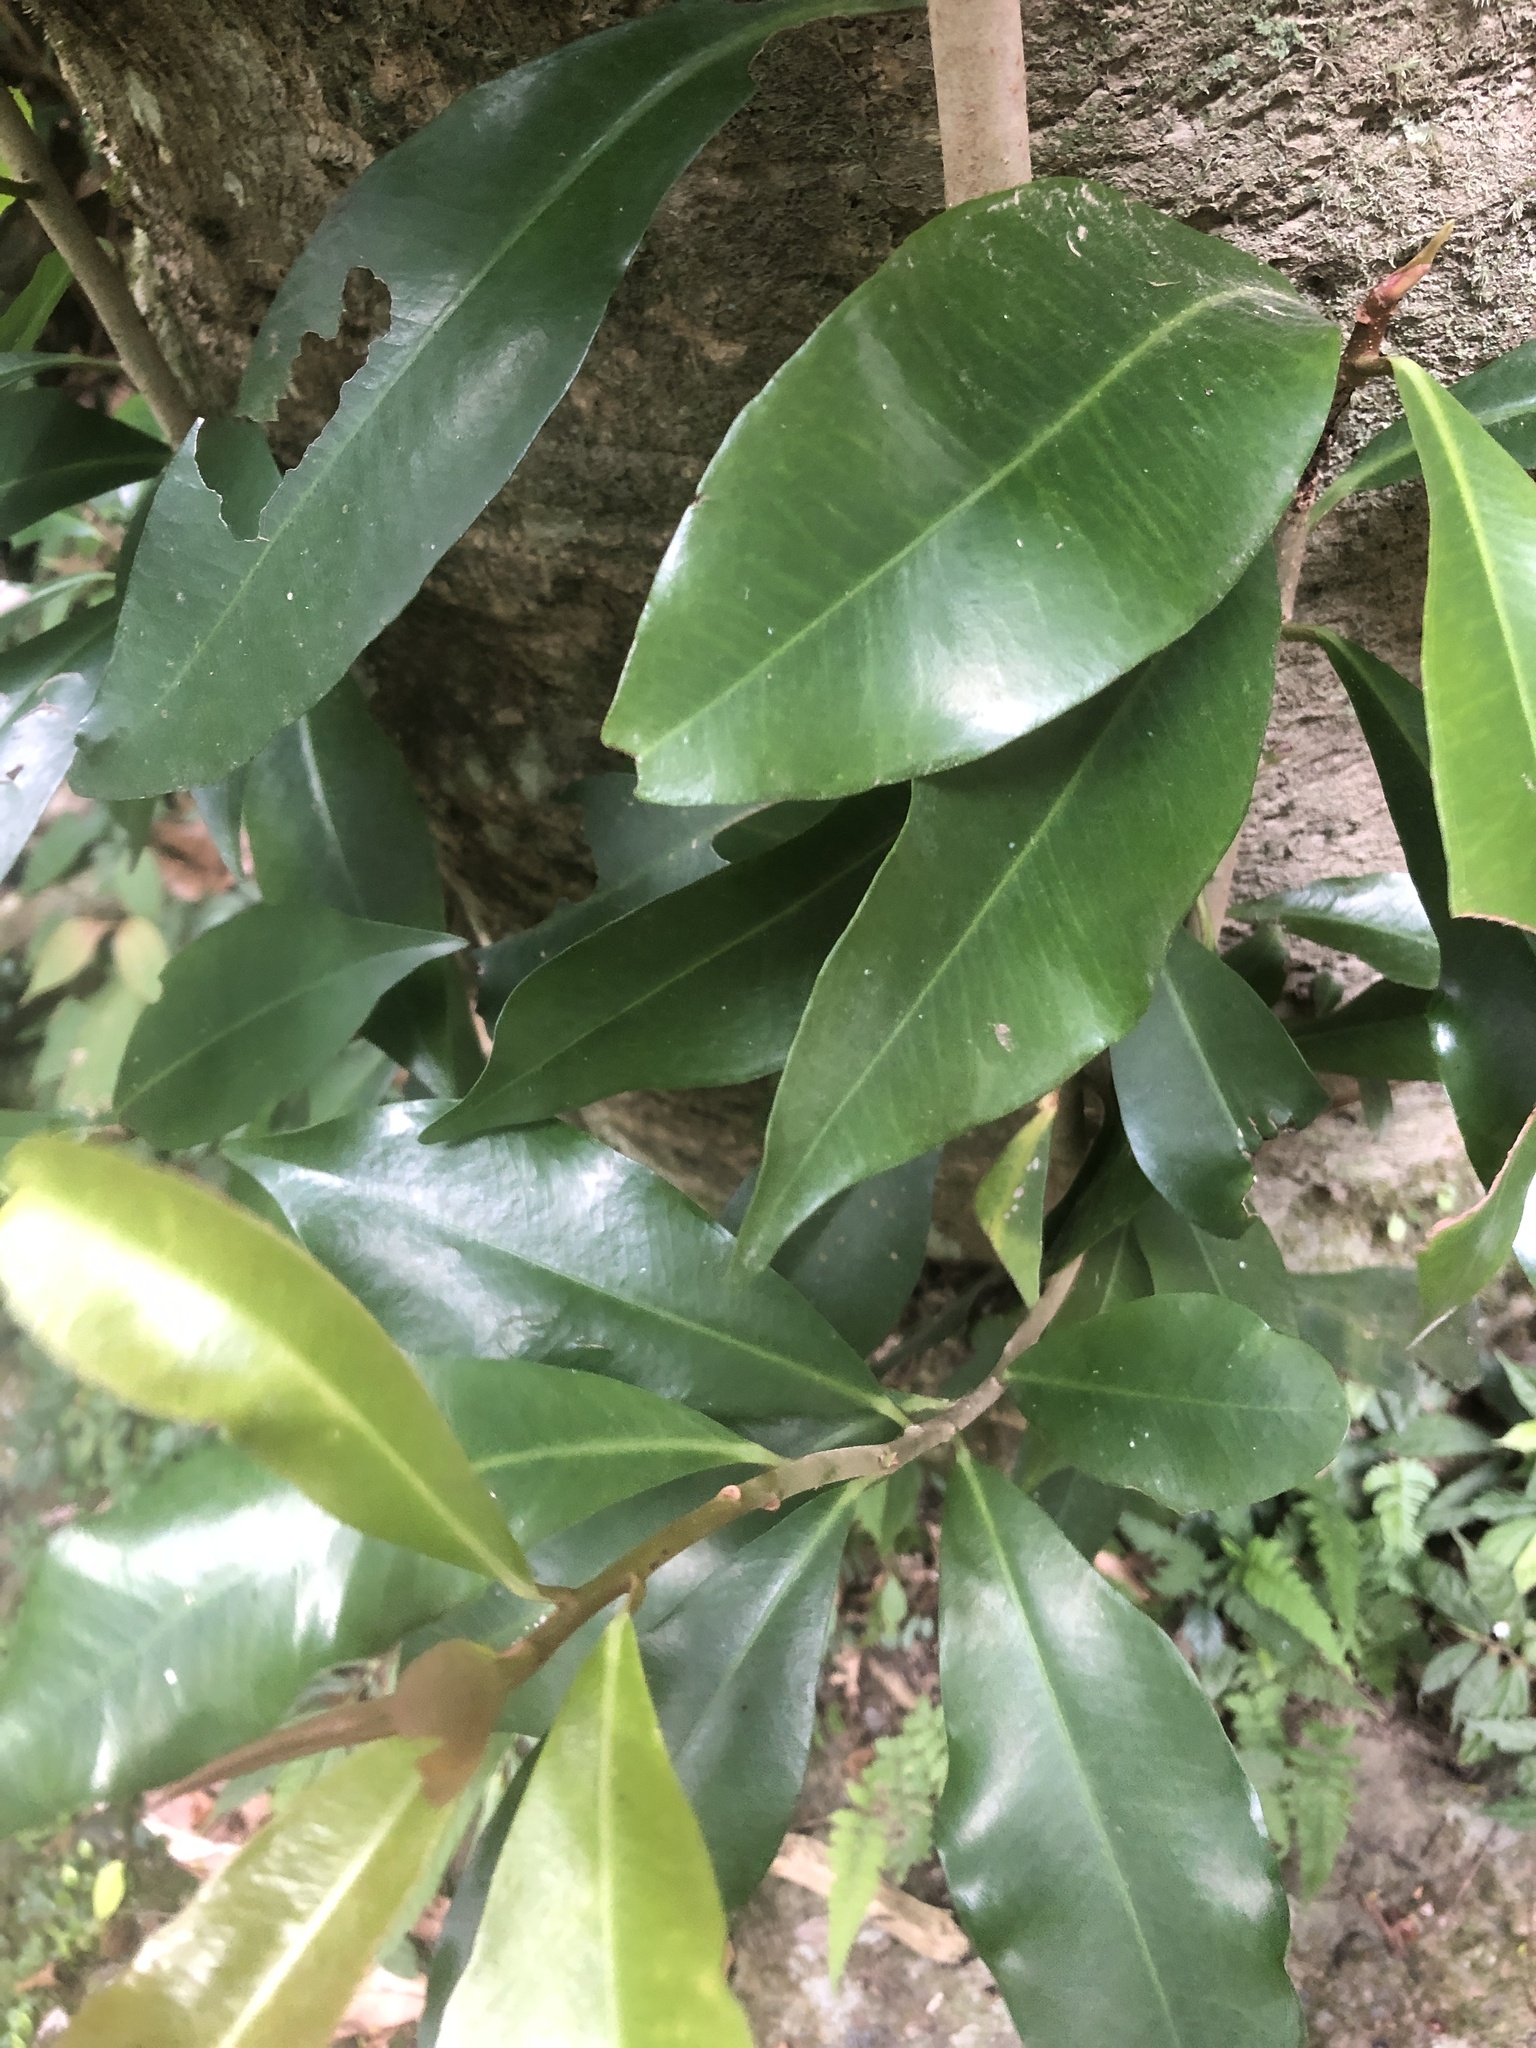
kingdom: Plantae
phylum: Tracheophyta
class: Magnoliopsida
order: Ericales
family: Primulaceae
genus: Ardisia
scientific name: Ardisia sieboldii
